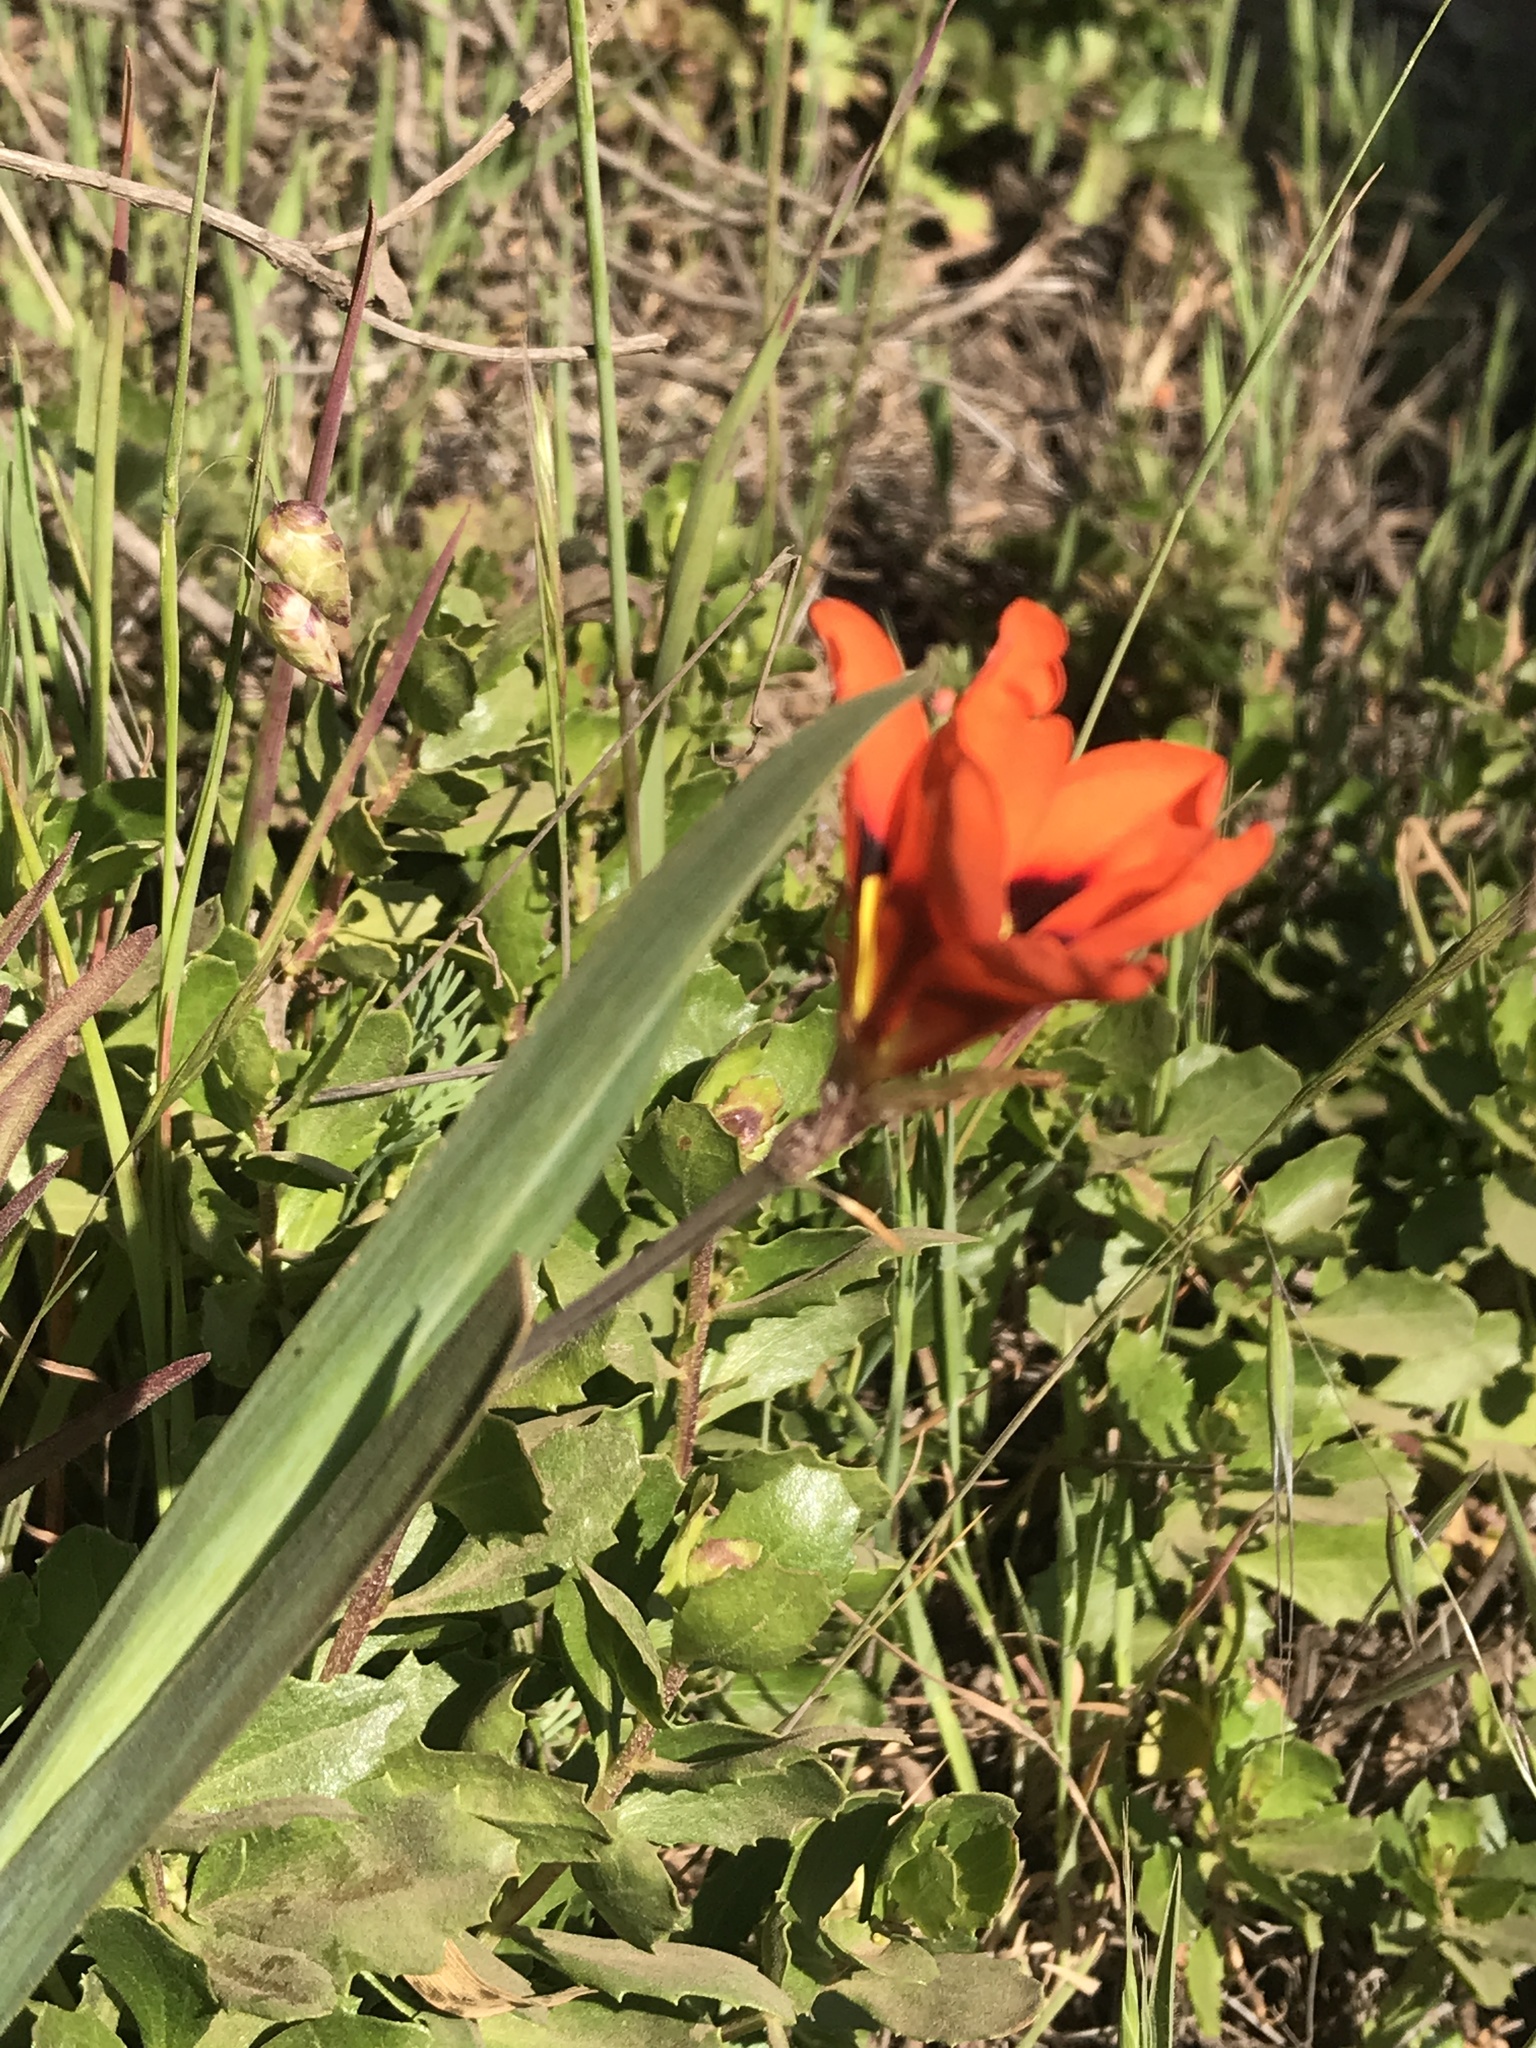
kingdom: Plantae
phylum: Tracheophyta
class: Liliopsida
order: Asparagales
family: Iridaceae
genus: Sparaxis
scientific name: Sparaxis tricolor
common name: Wandflower
